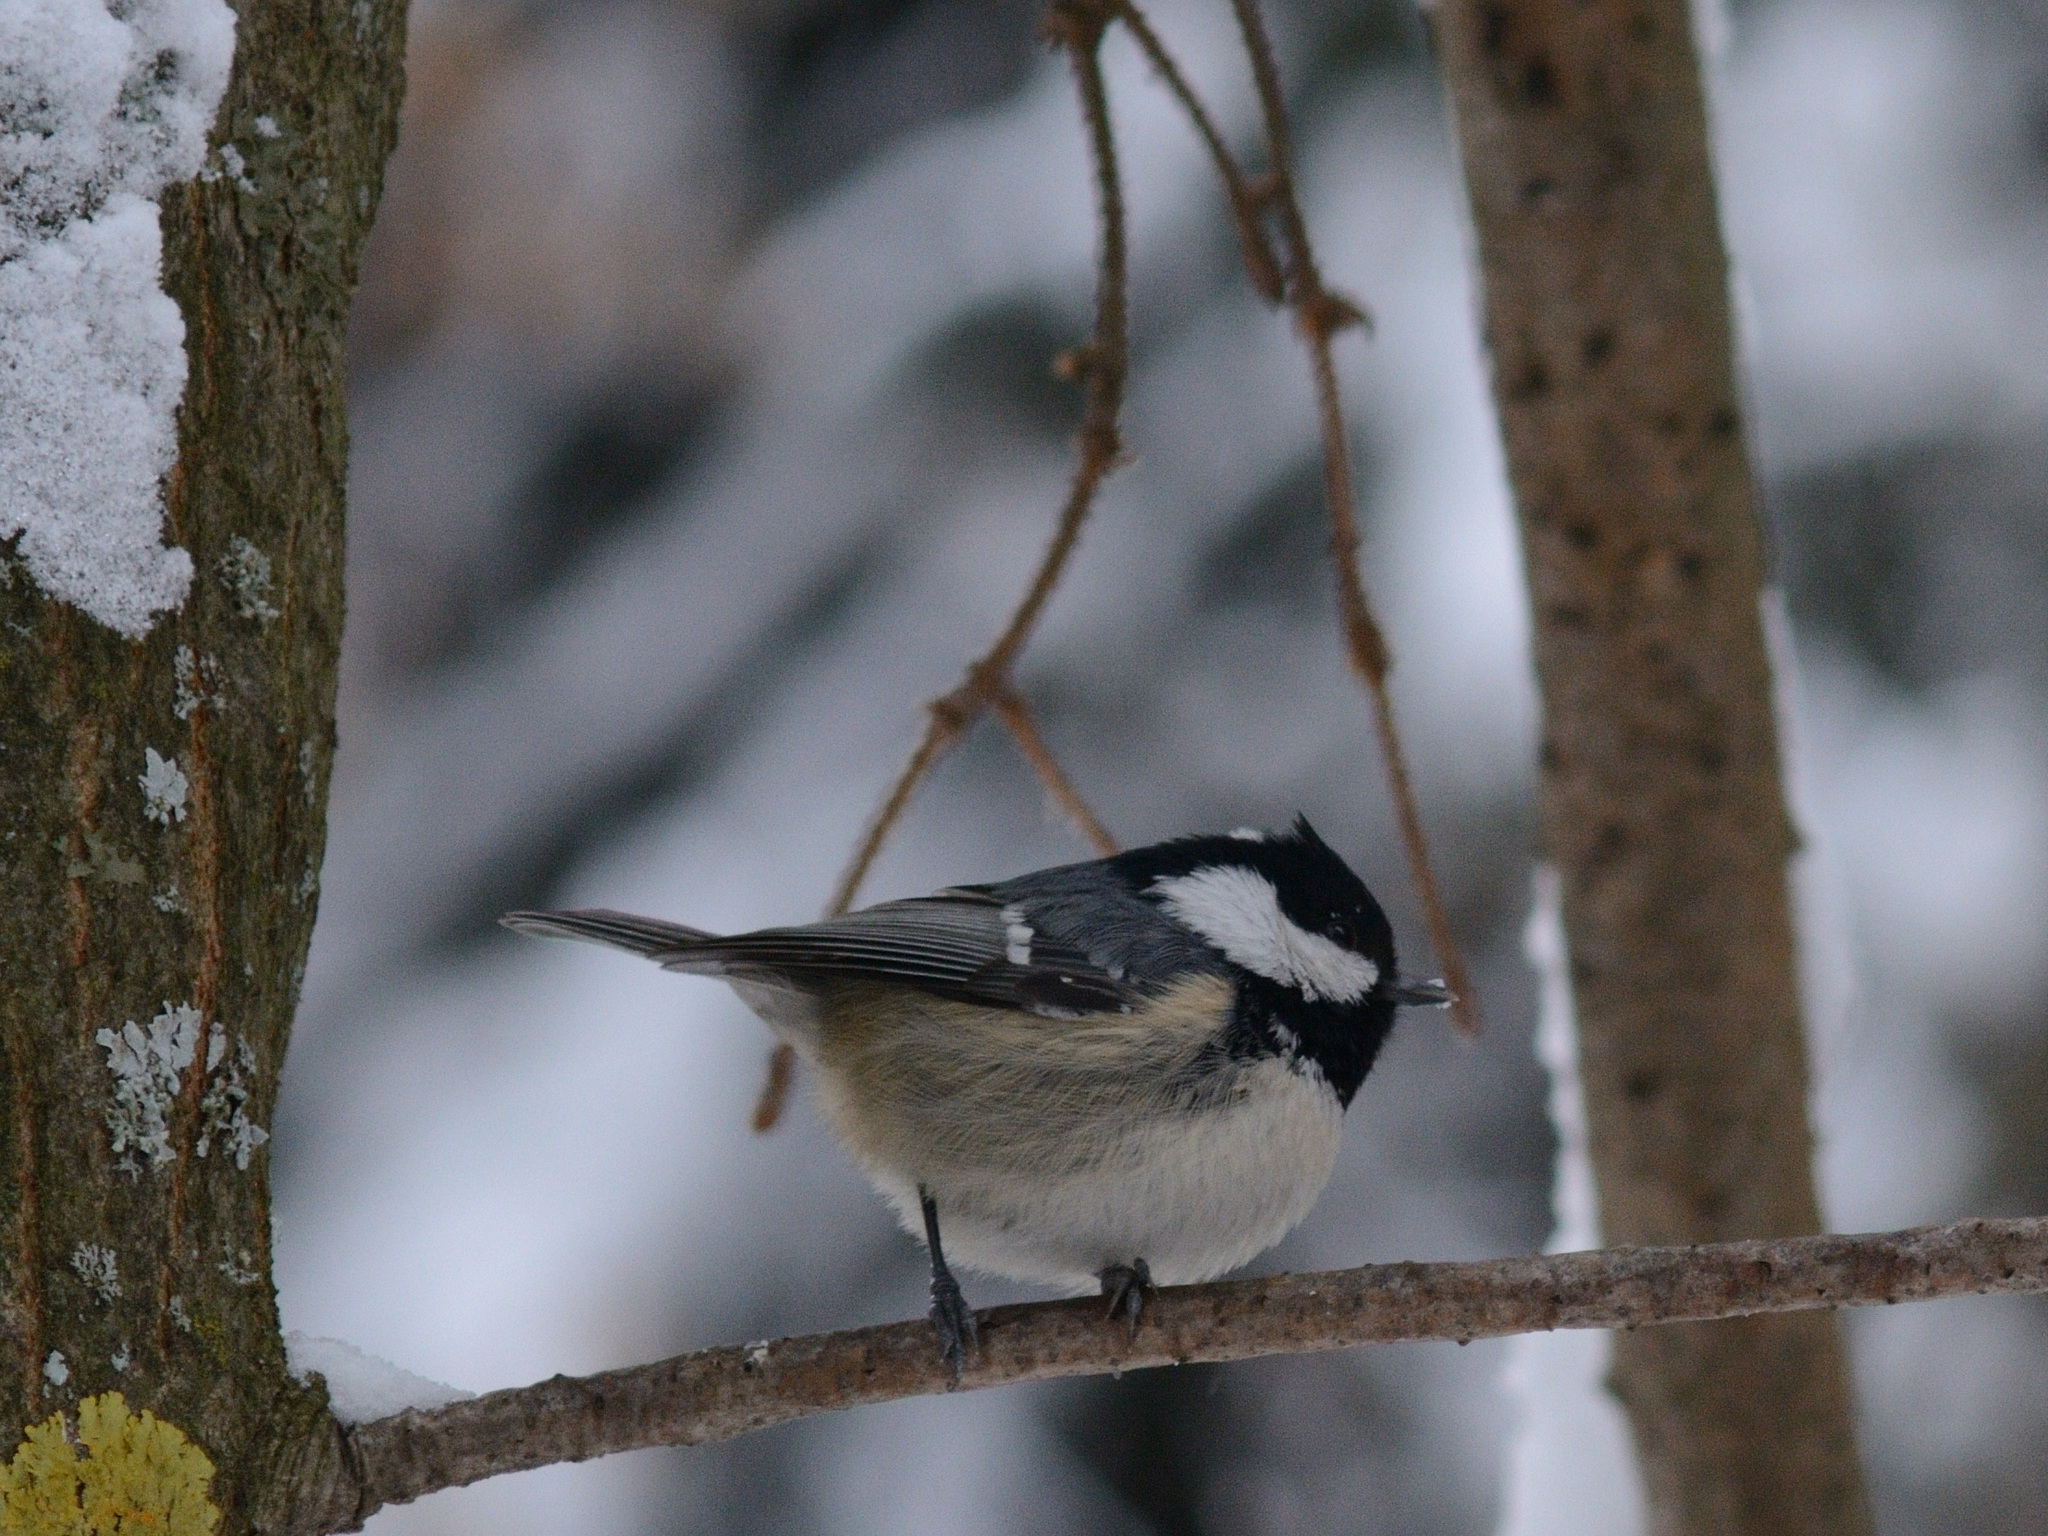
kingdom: Animalia
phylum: Chordata
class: Aves
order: Passeriformes
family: Paridae
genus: Periparus
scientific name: Periparus ater
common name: Coal tit
